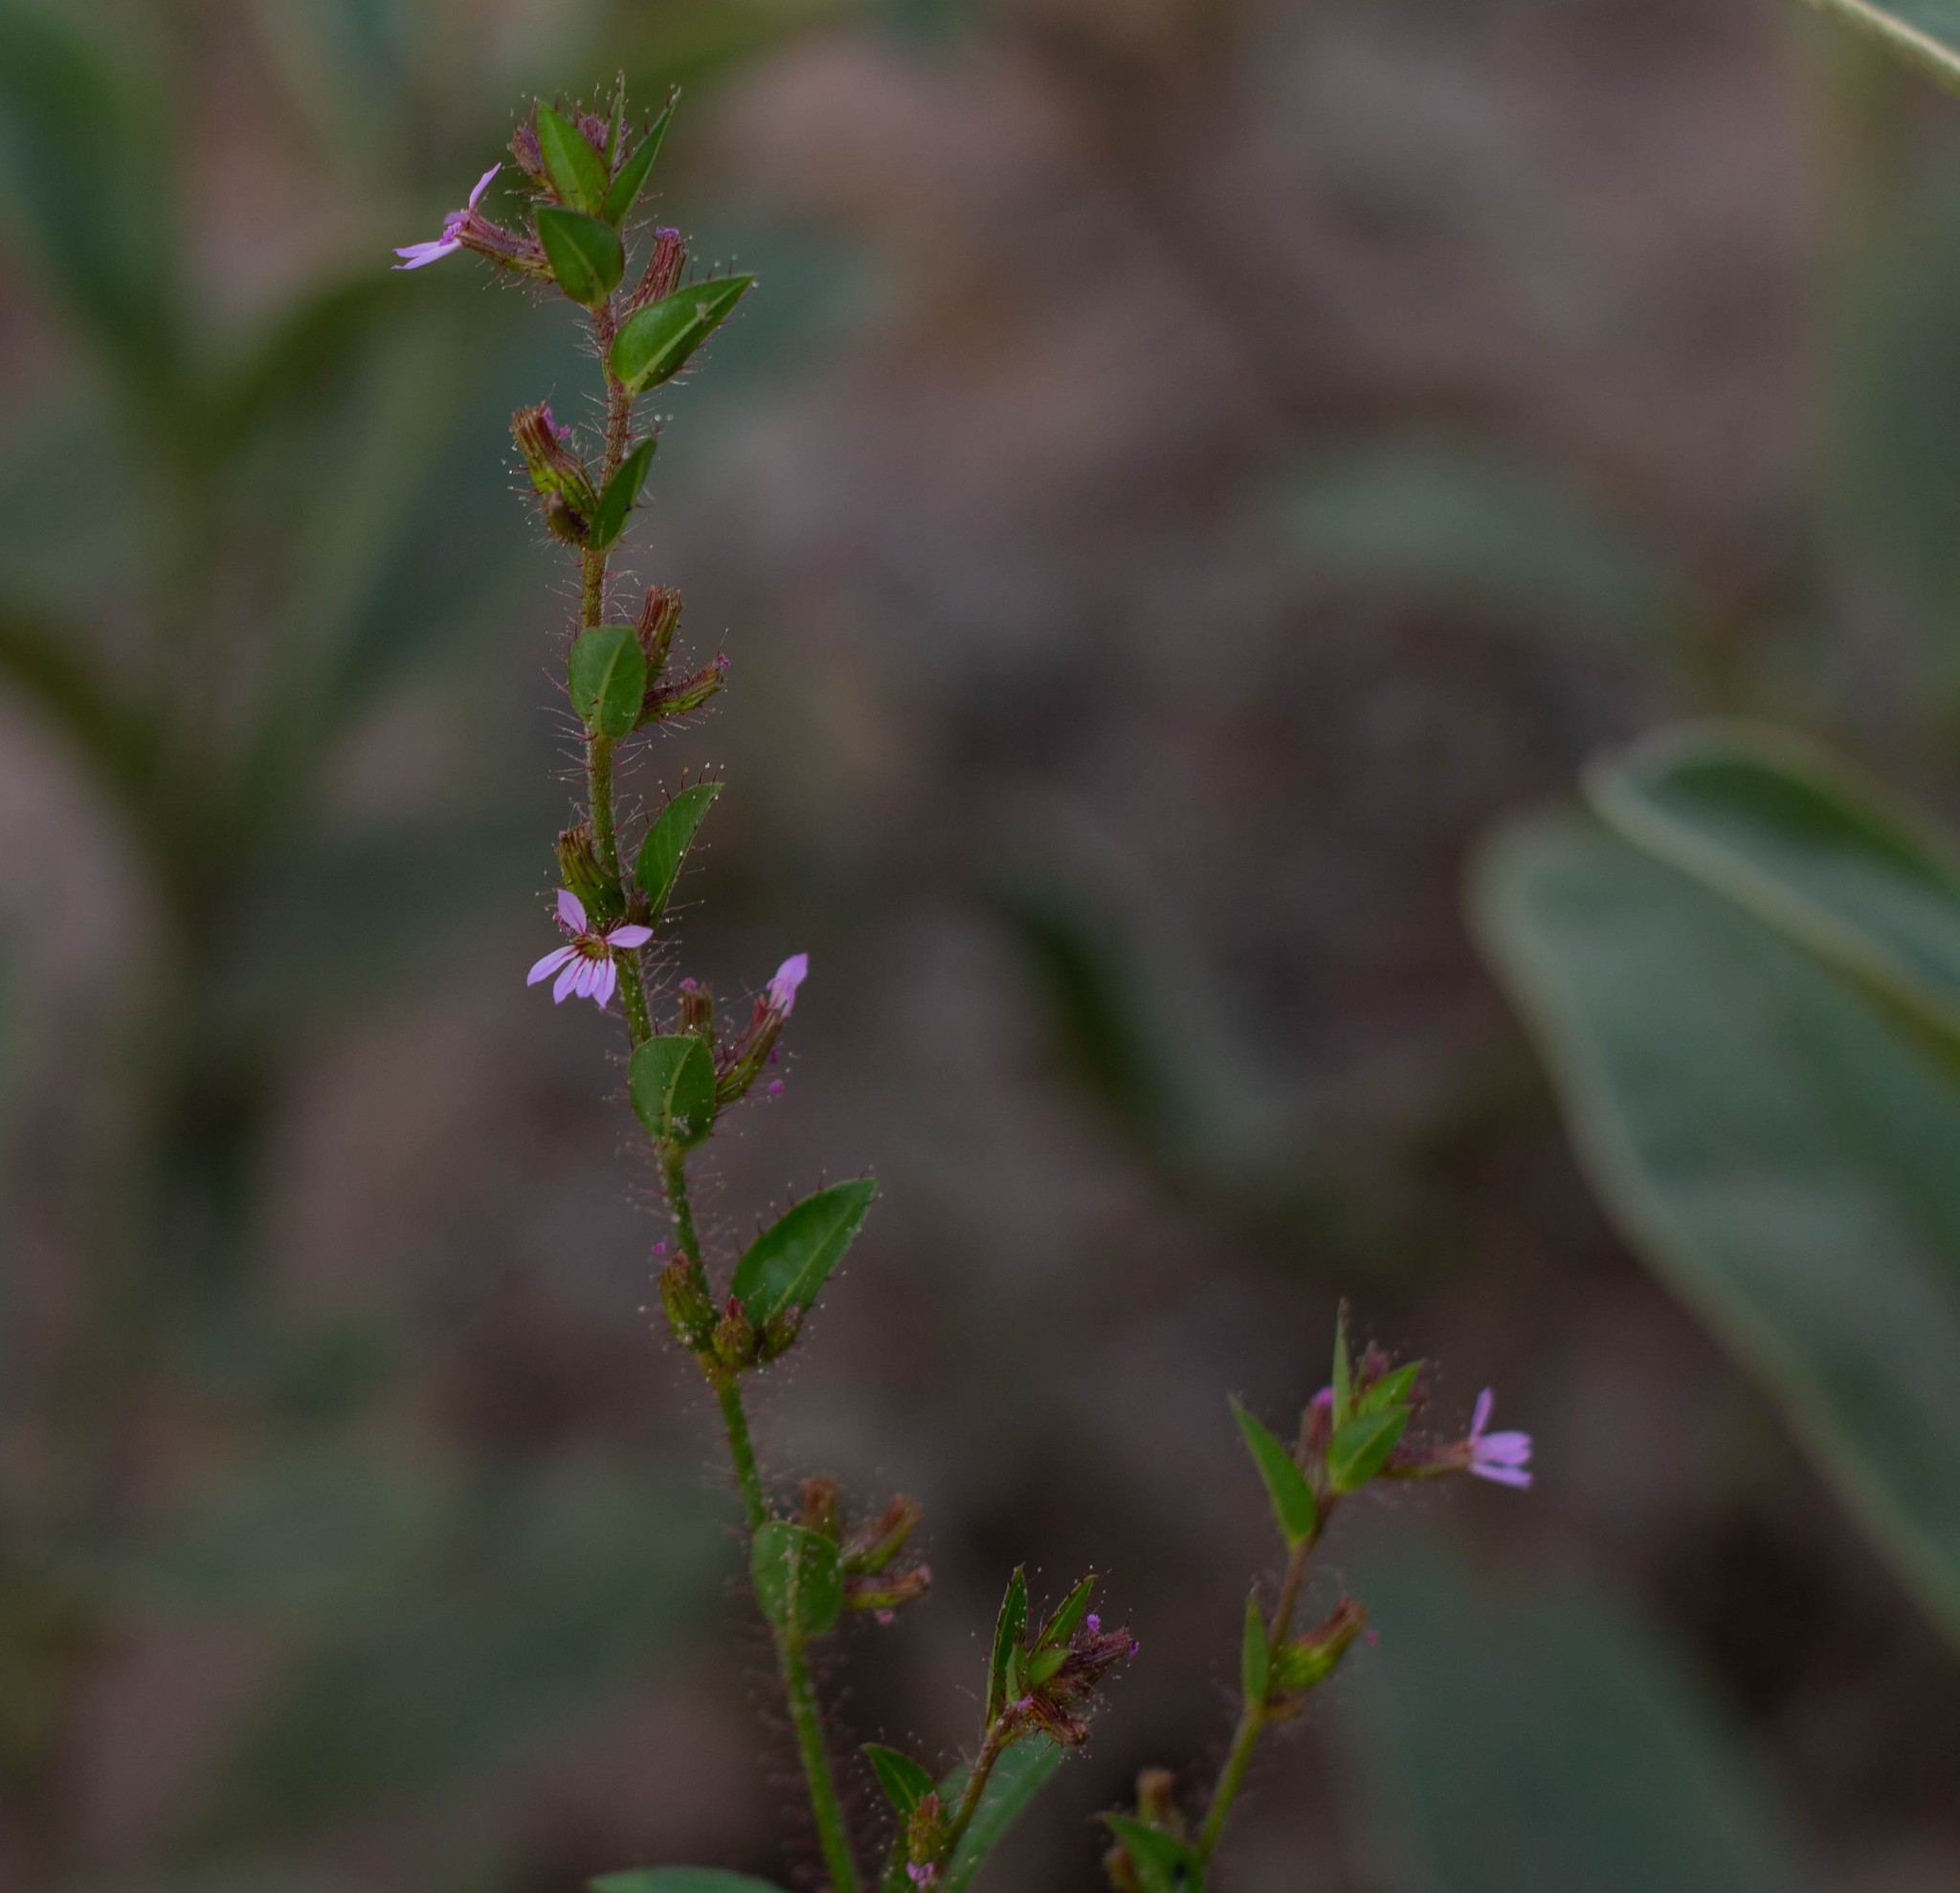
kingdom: Plantae
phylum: Tracheophyta
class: Magnoliopsida
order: Myrtales
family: Lythraceae
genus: Cuphea
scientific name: Cuphea inaequalifolia
